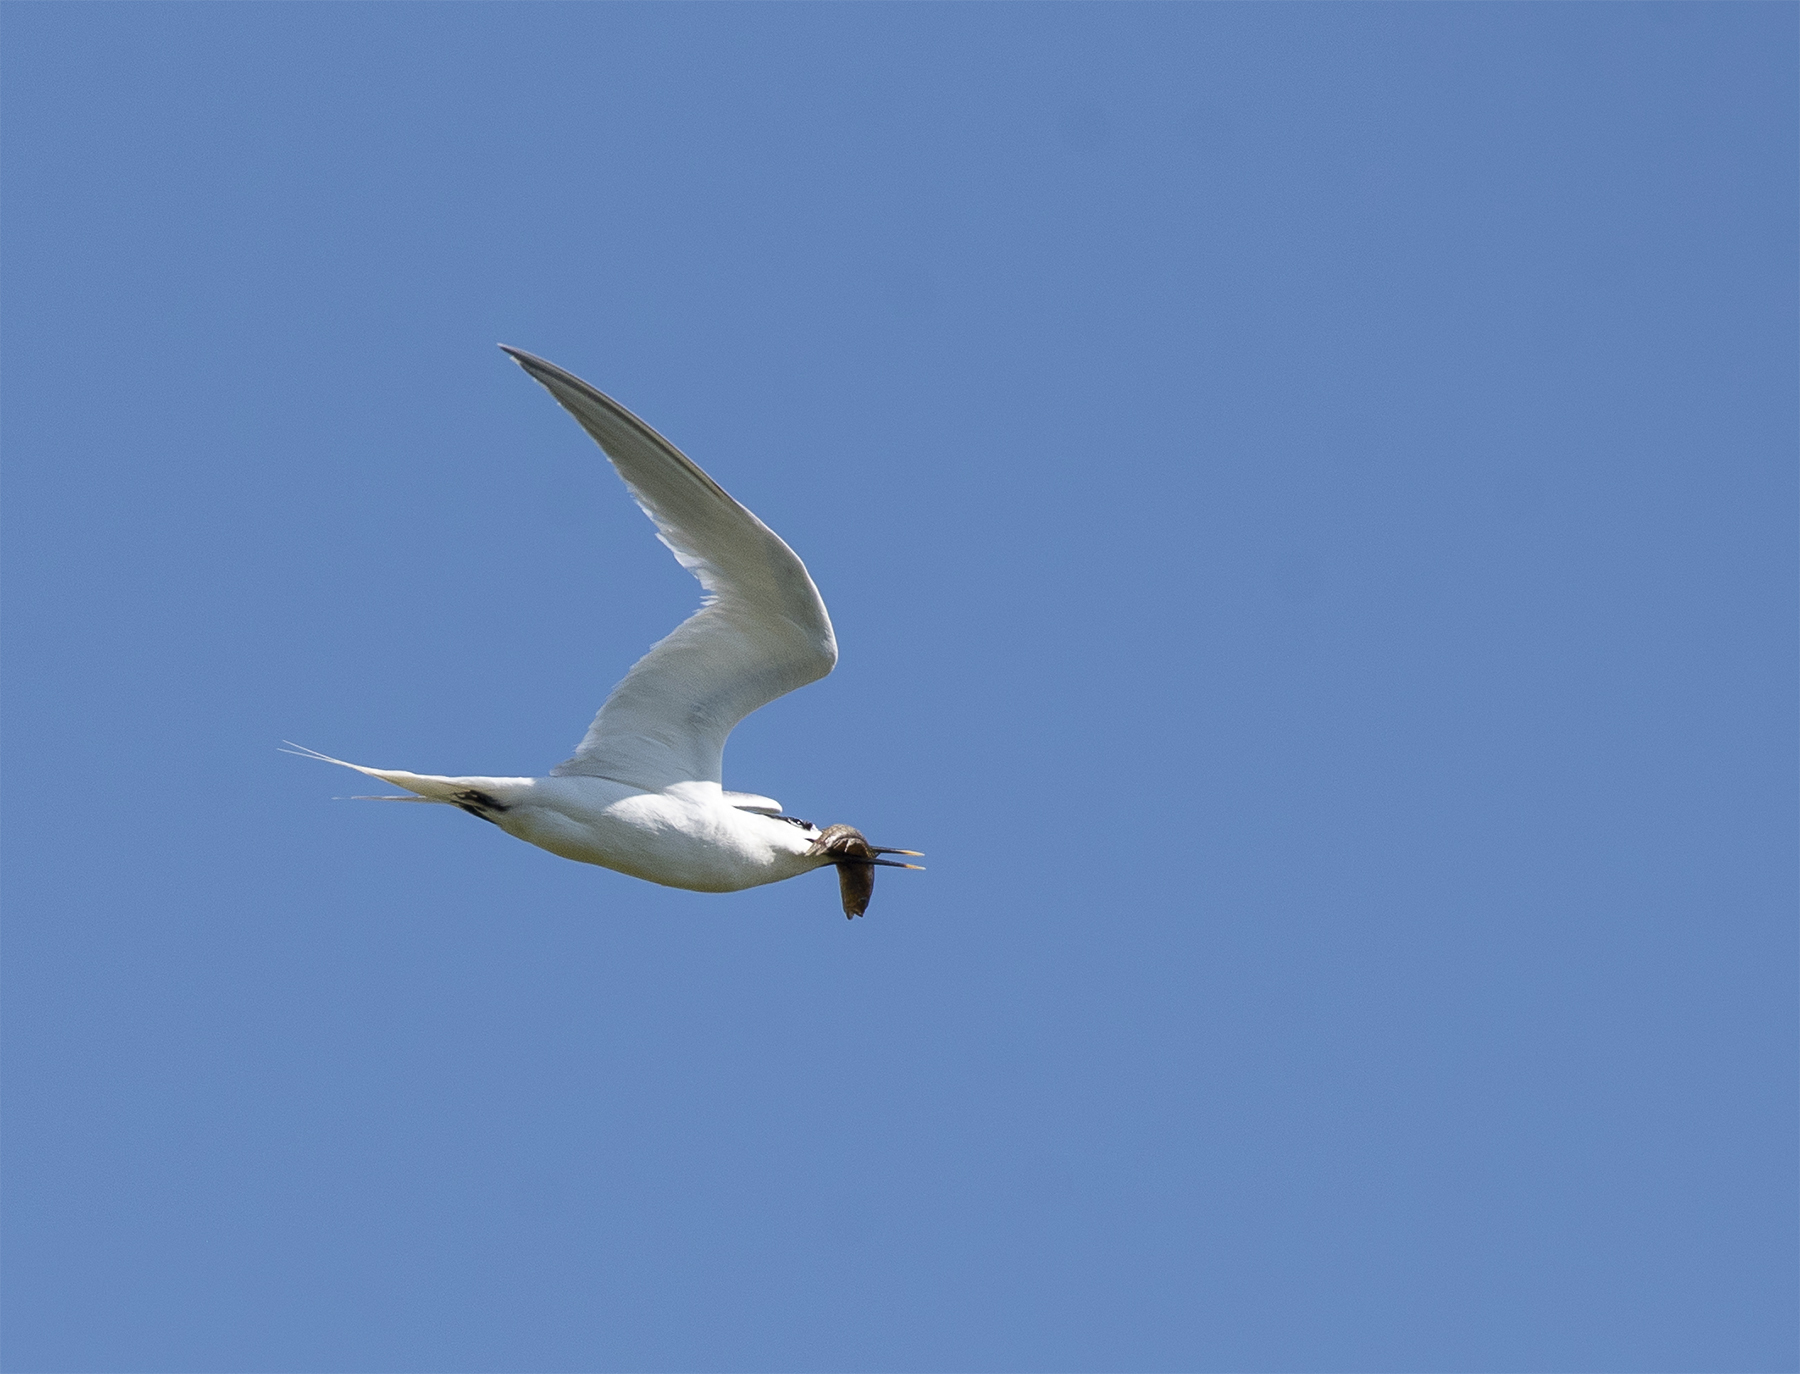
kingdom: Animalia
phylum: Chordata
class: Aves
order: Charadriiformes
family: Laridae
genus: Thalasseus
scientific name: Thalasseus sandvicensis
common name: Sandwich tern
